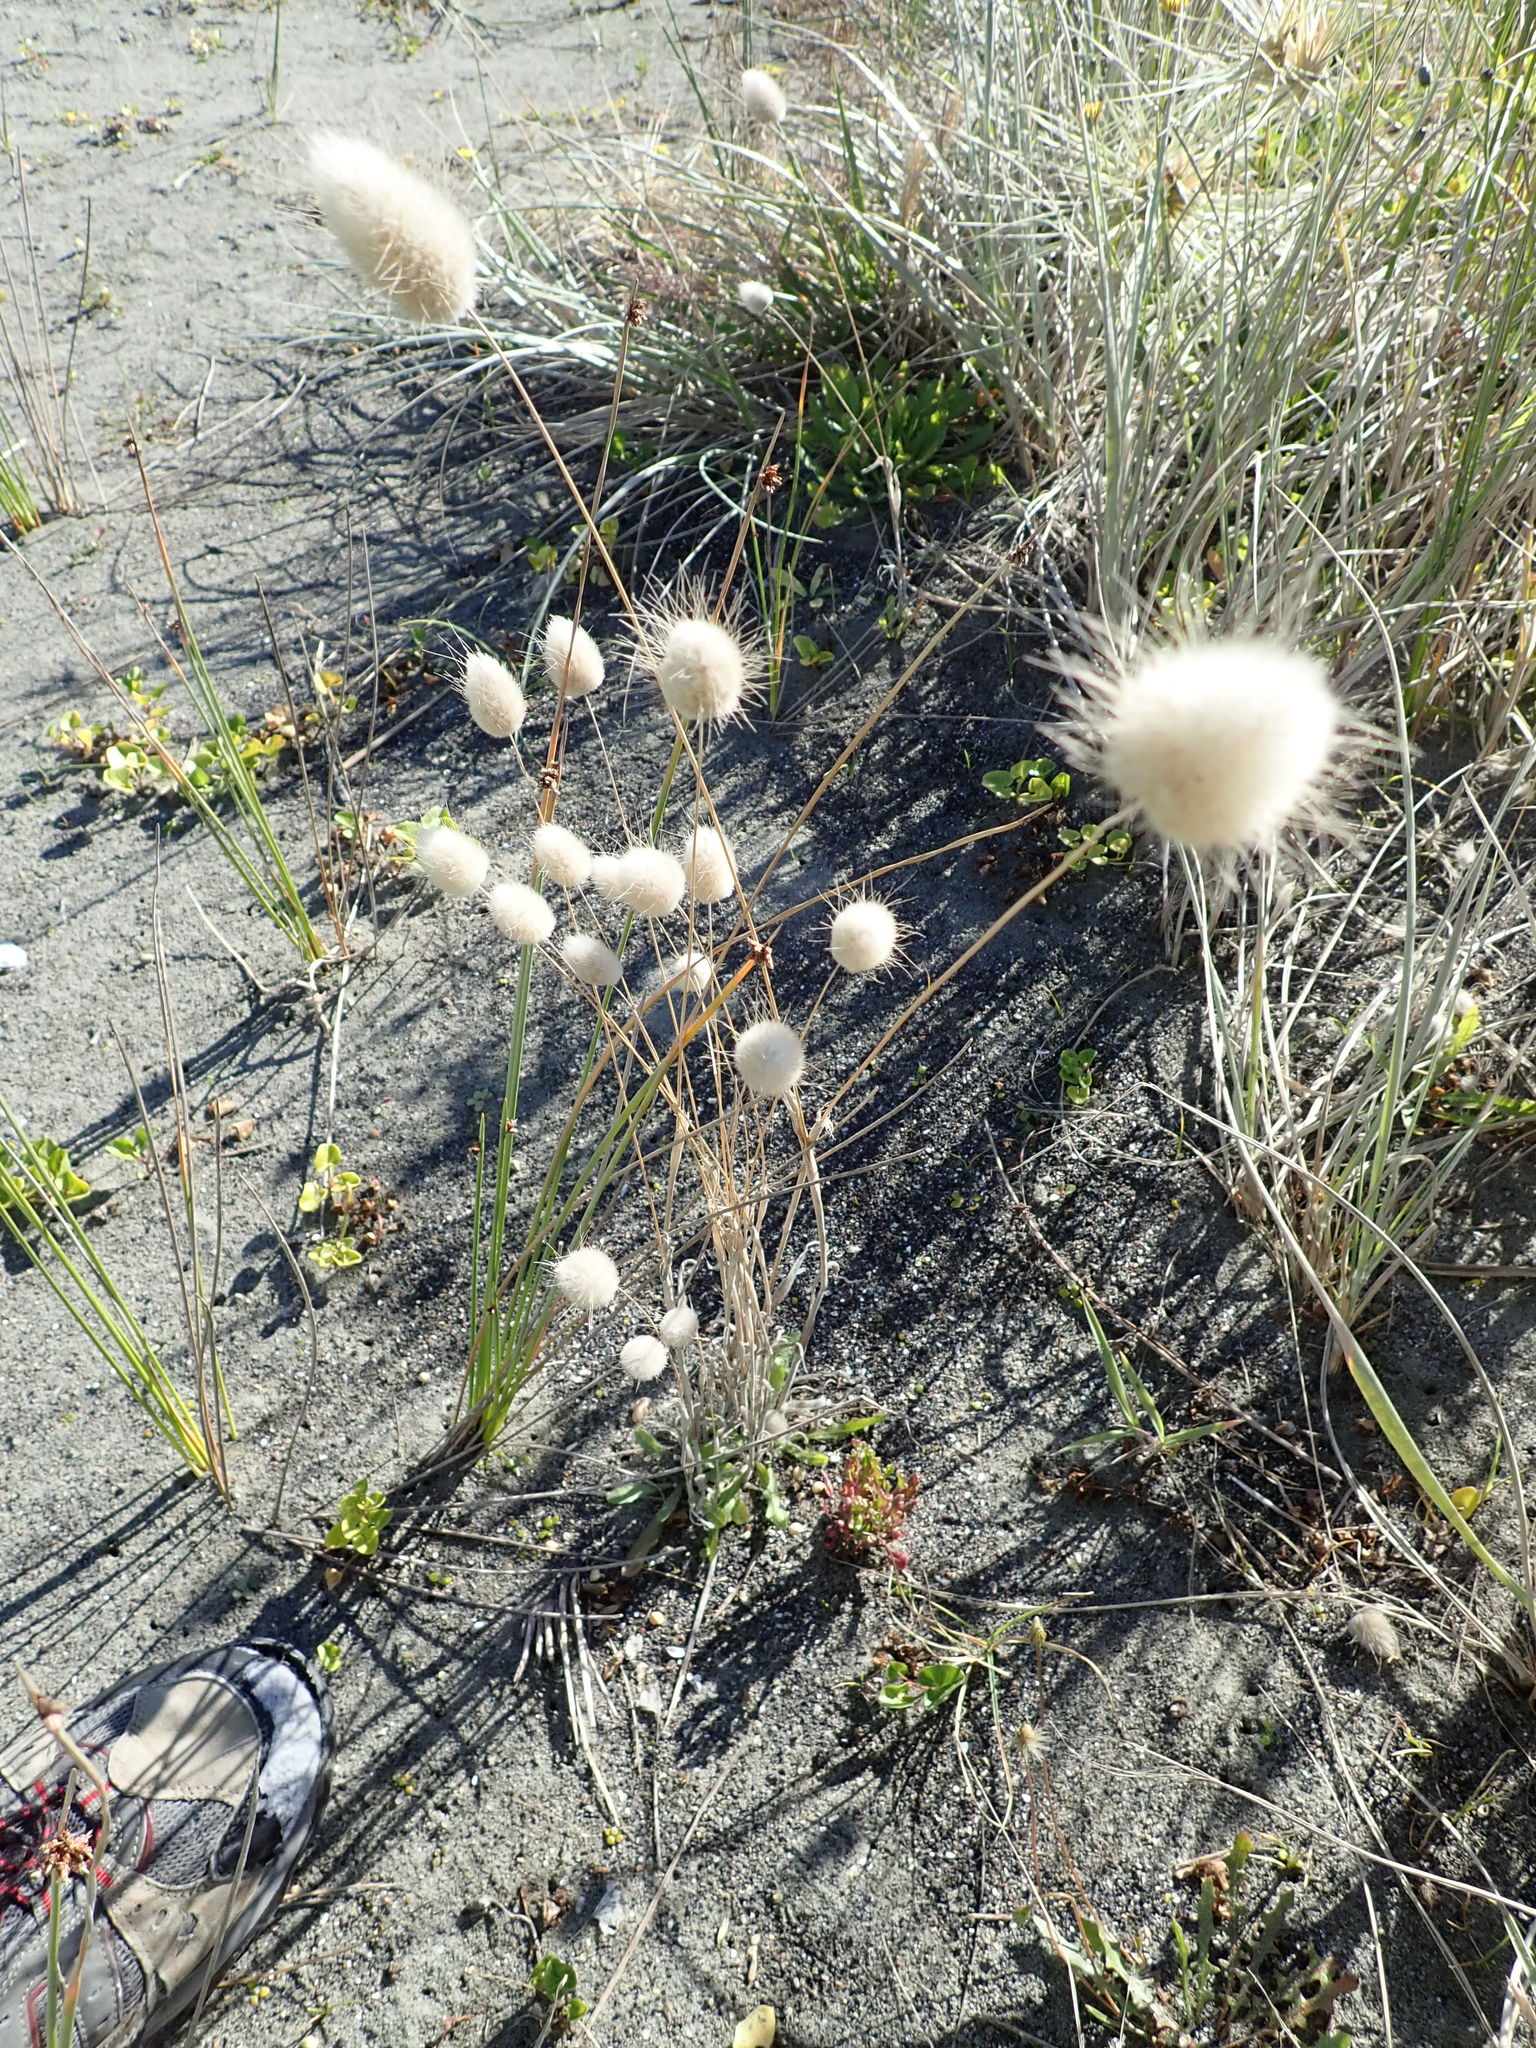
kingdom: Plantae
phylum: Tracheophyta
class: Liliopsida
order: Poales
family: Poaceae
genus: Lagurus
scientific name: Lagurus ovatus
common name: Hare's-tail
